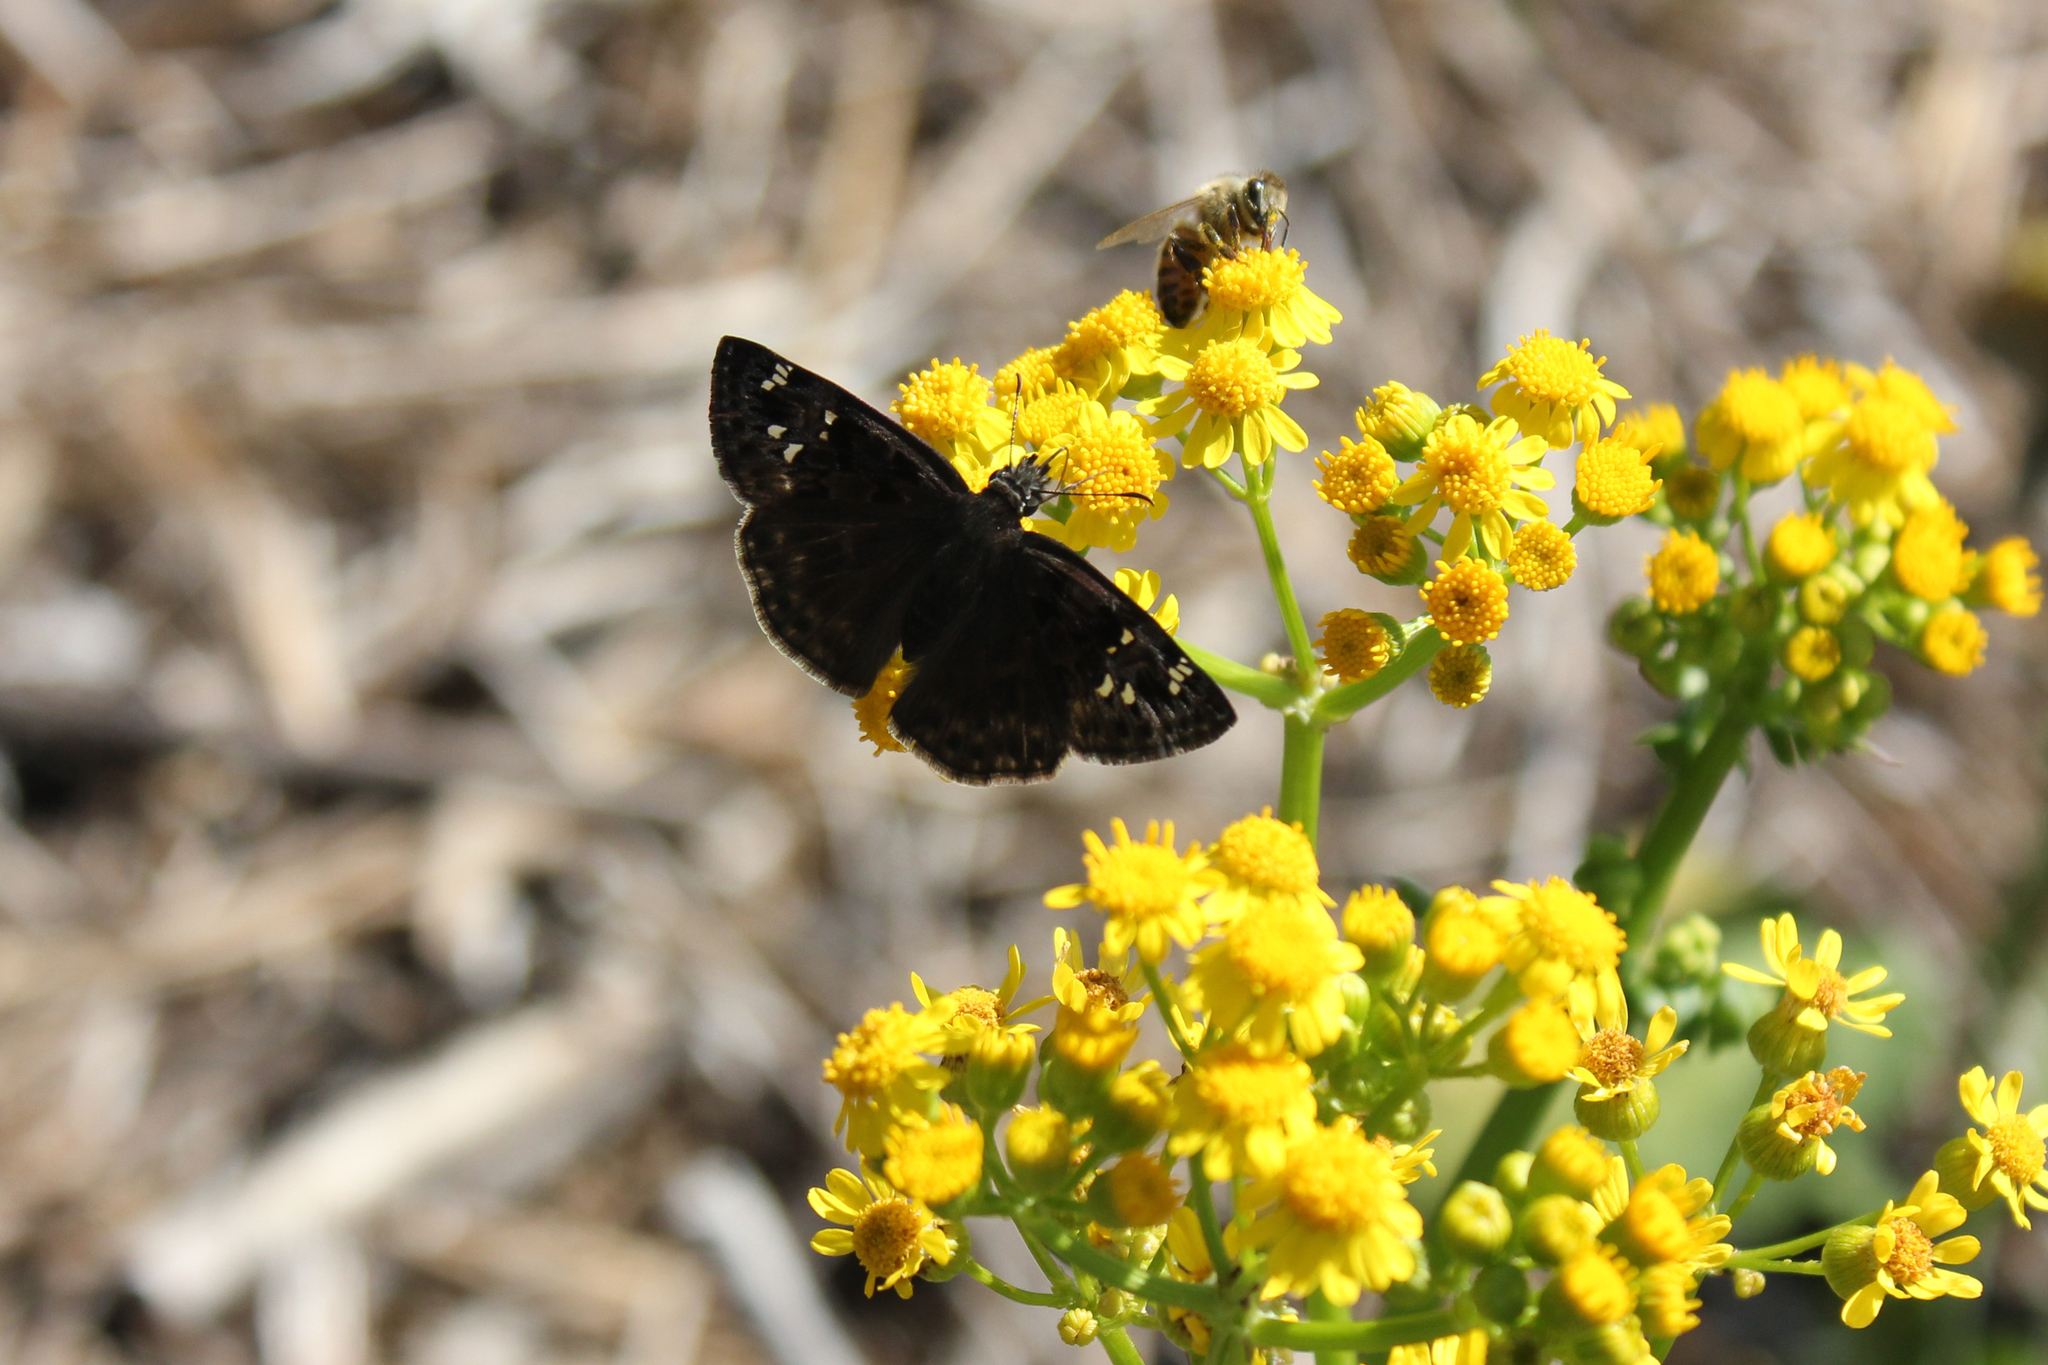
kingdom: Animalia
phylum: Arthropoda
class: Insecta
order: Lepidoptera
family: Hesperiidae
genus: Erynnis
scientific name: Erynnis horatius
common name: Horace's duskywing
